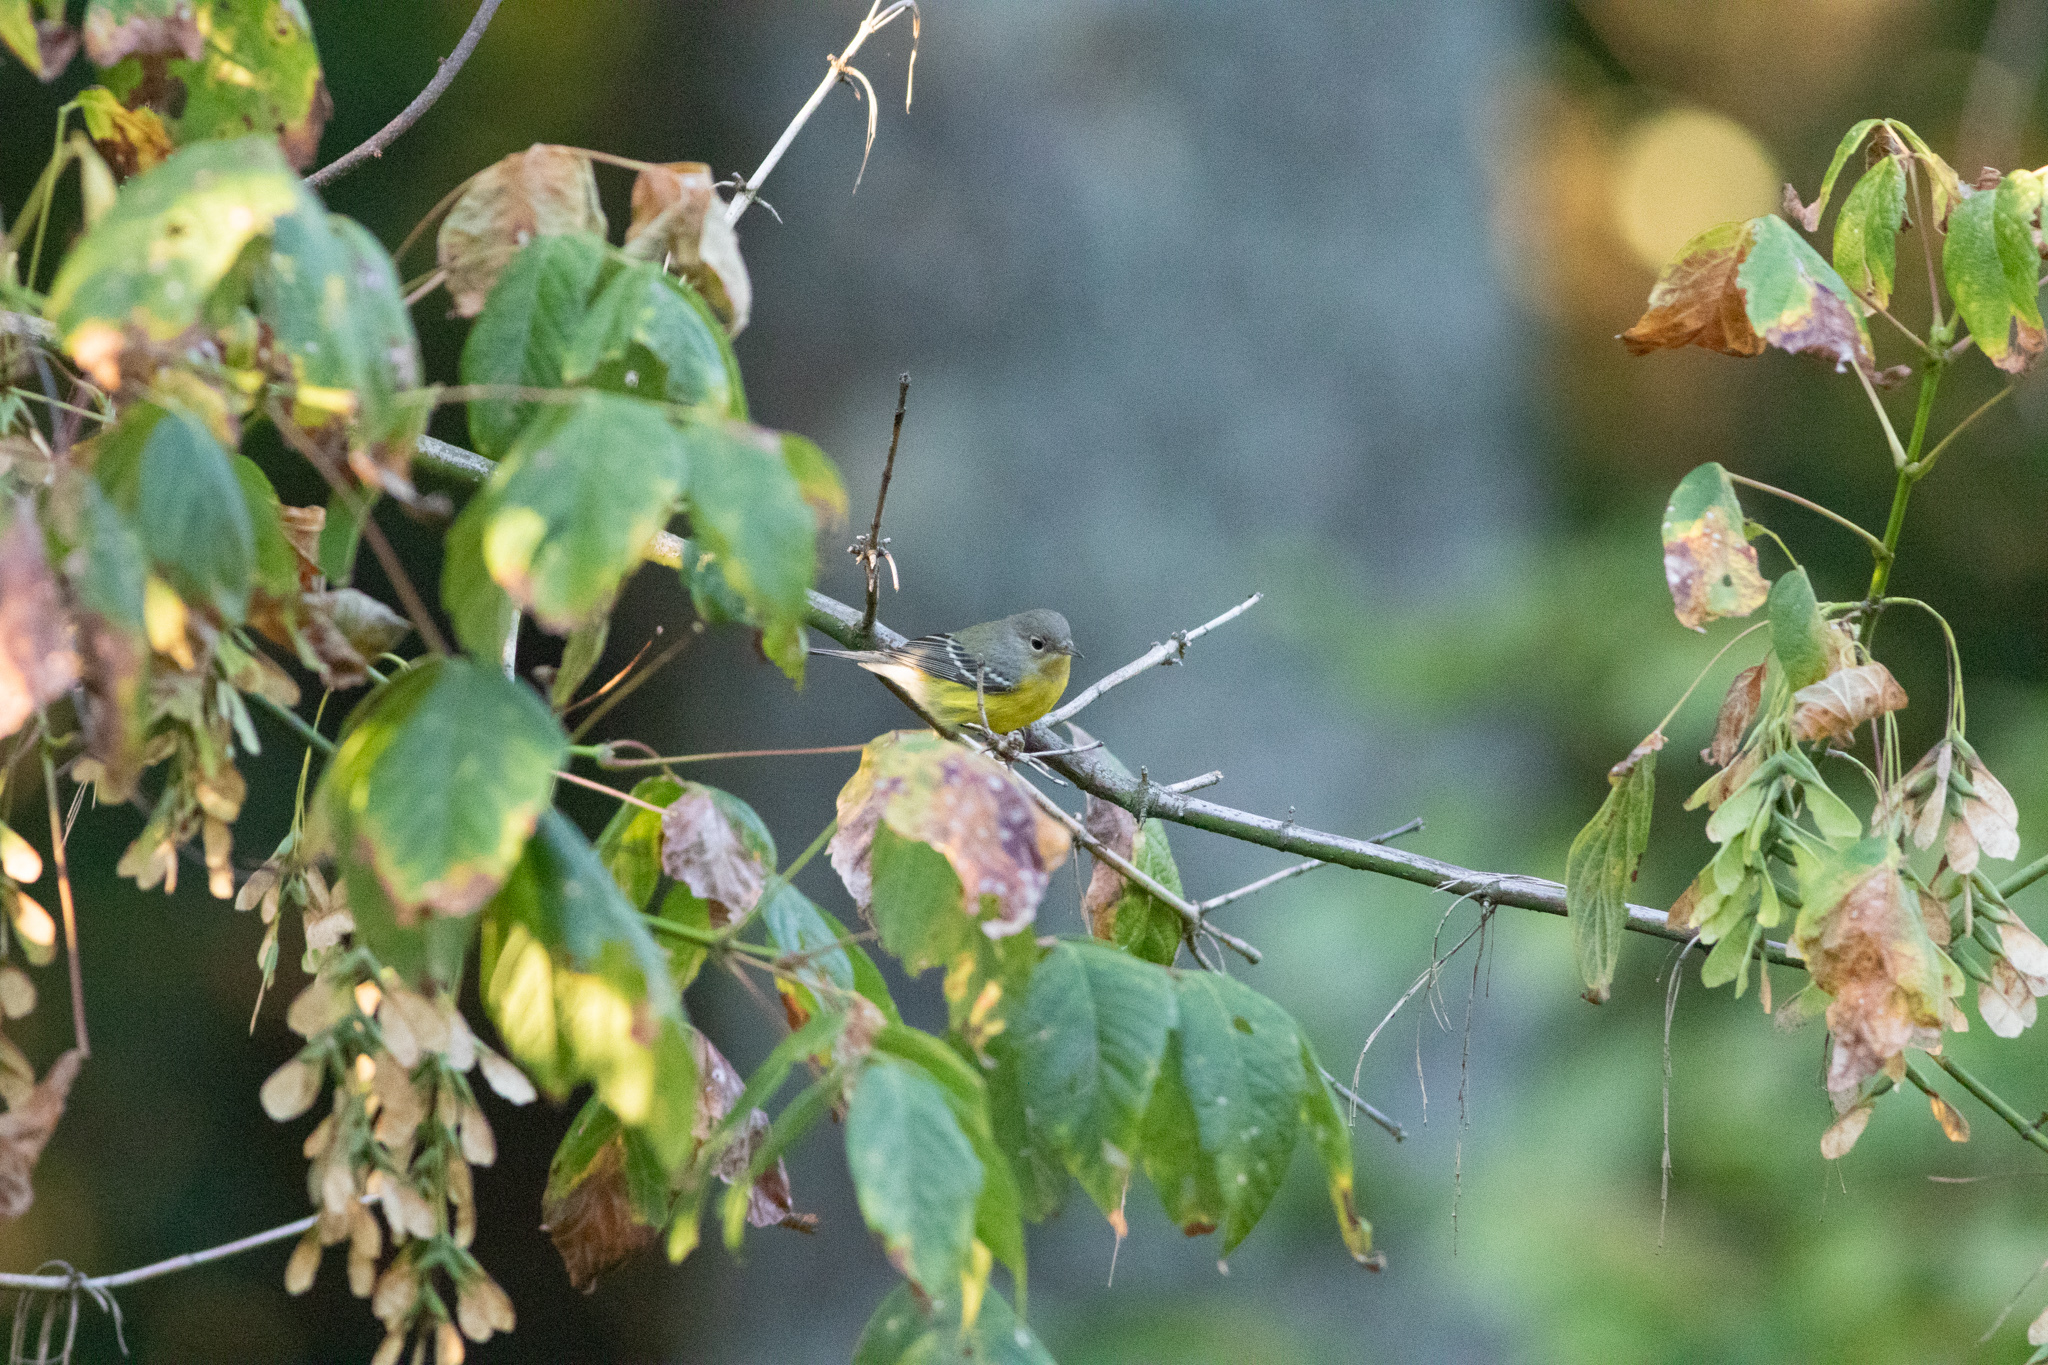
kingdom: Animalia
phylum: Chordata
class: Aves
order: Passeriformes
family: Parulidae
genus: Setophaga
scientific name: Setophaga magnolia
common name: Magnolia warbler
